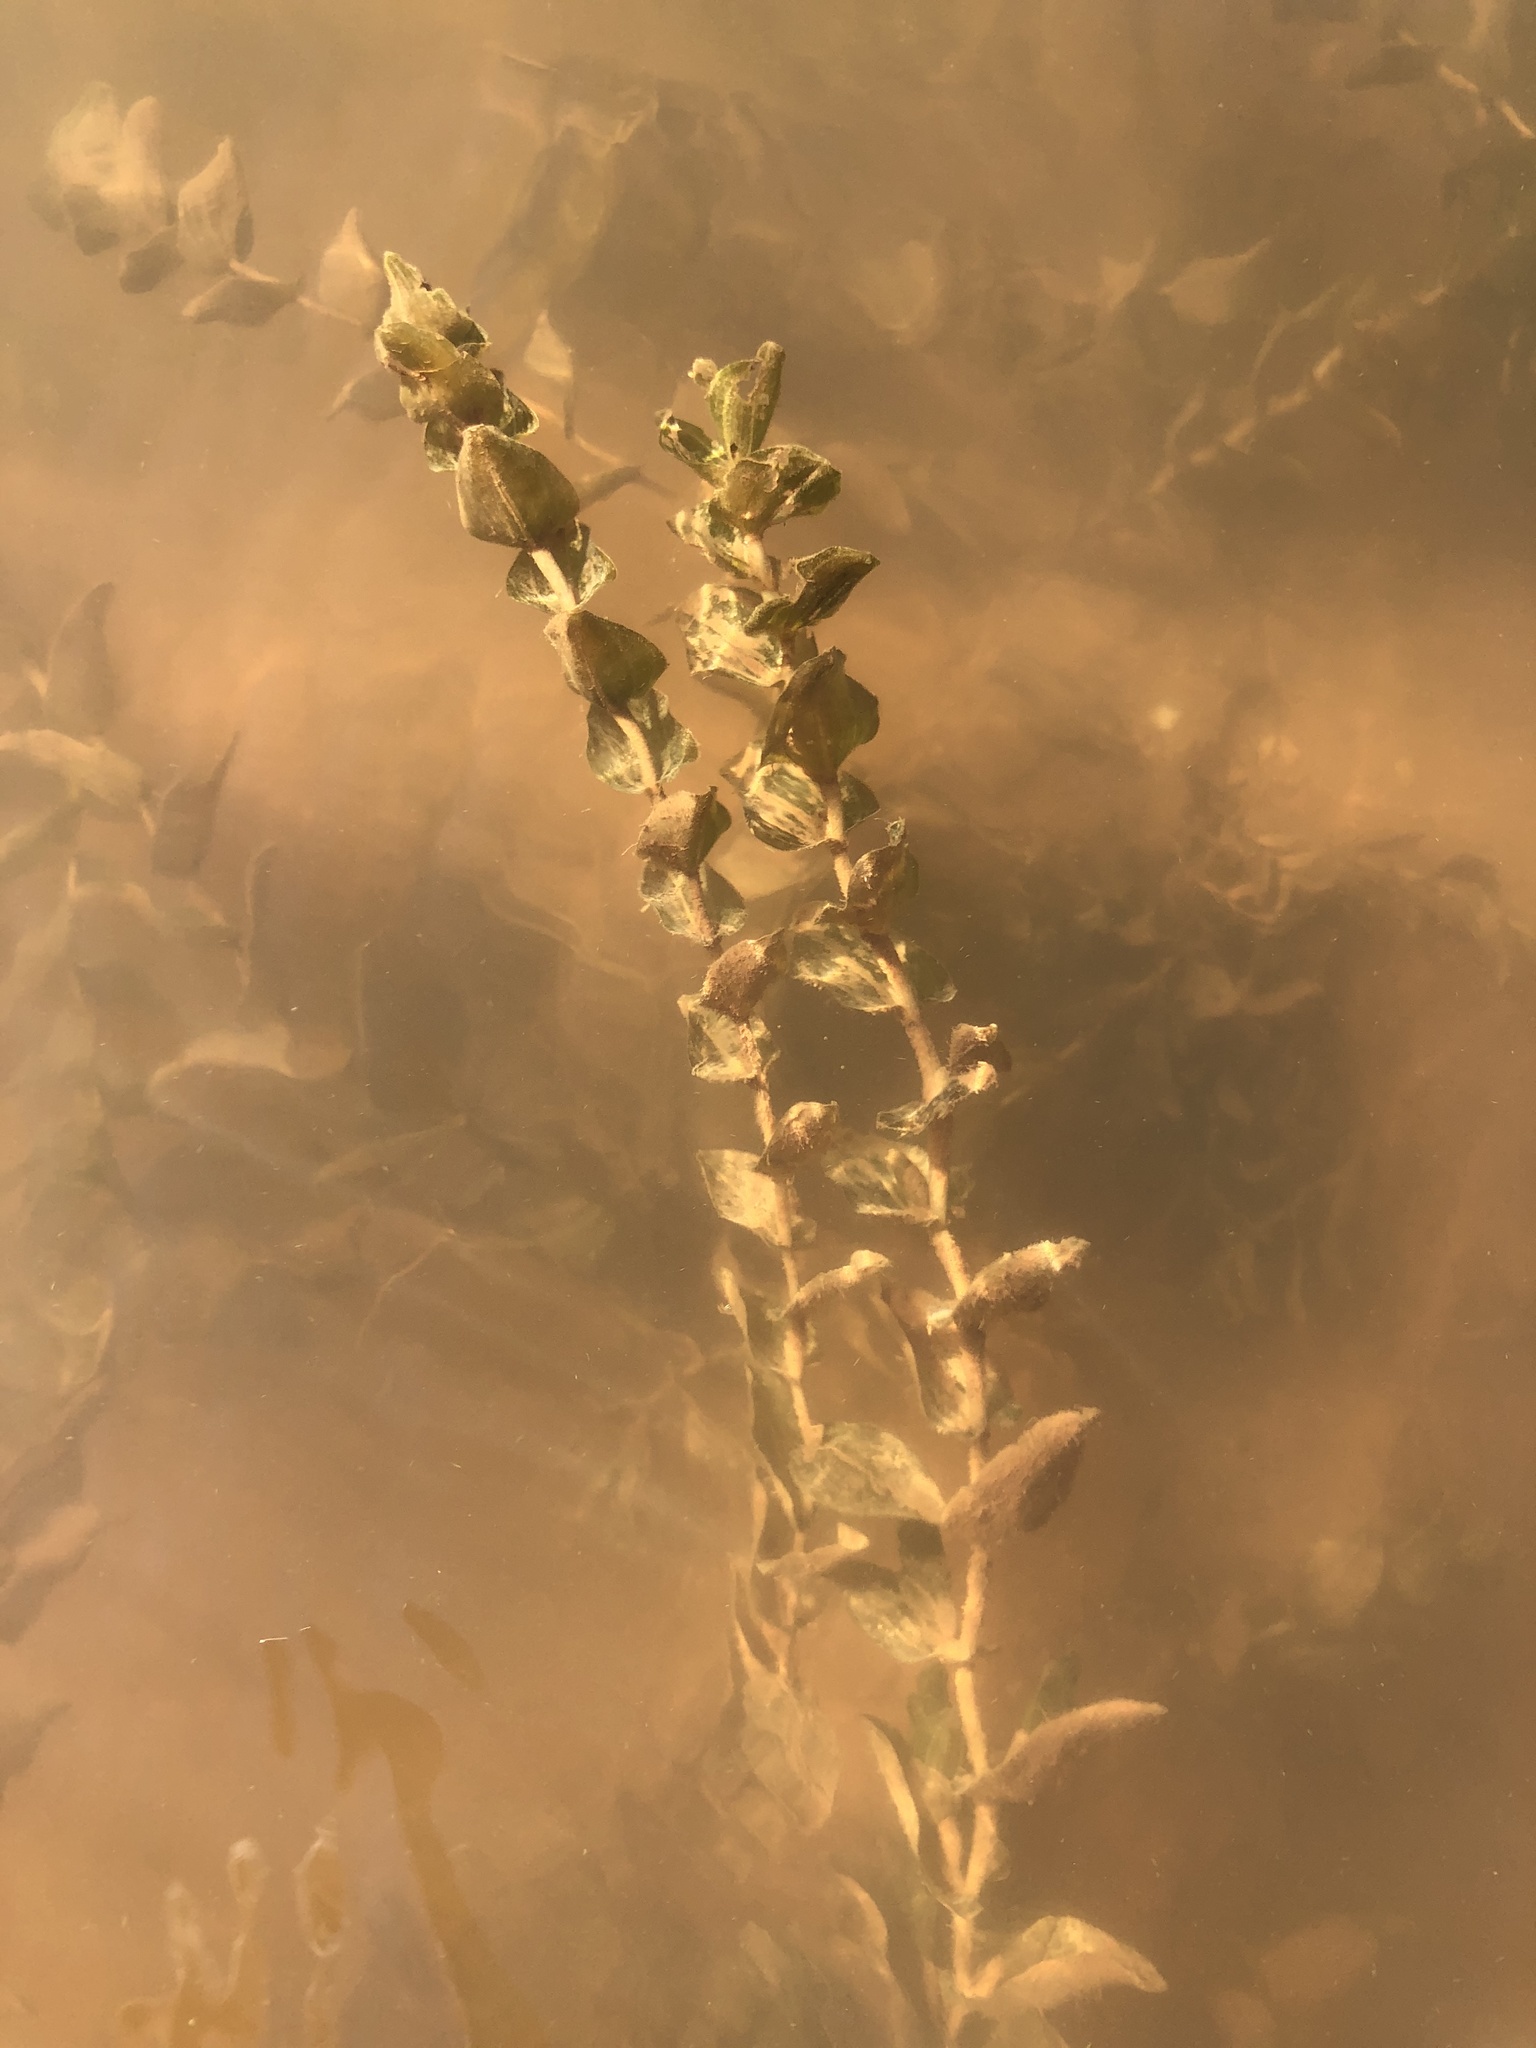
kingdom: Plantae
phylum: Tracheophyta
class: Liliopsida
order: Alismatales
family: Potamogetonaceae
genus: Potamogeton
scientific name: Potamogeton perfoliatus
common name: Perfoliate pondweed
